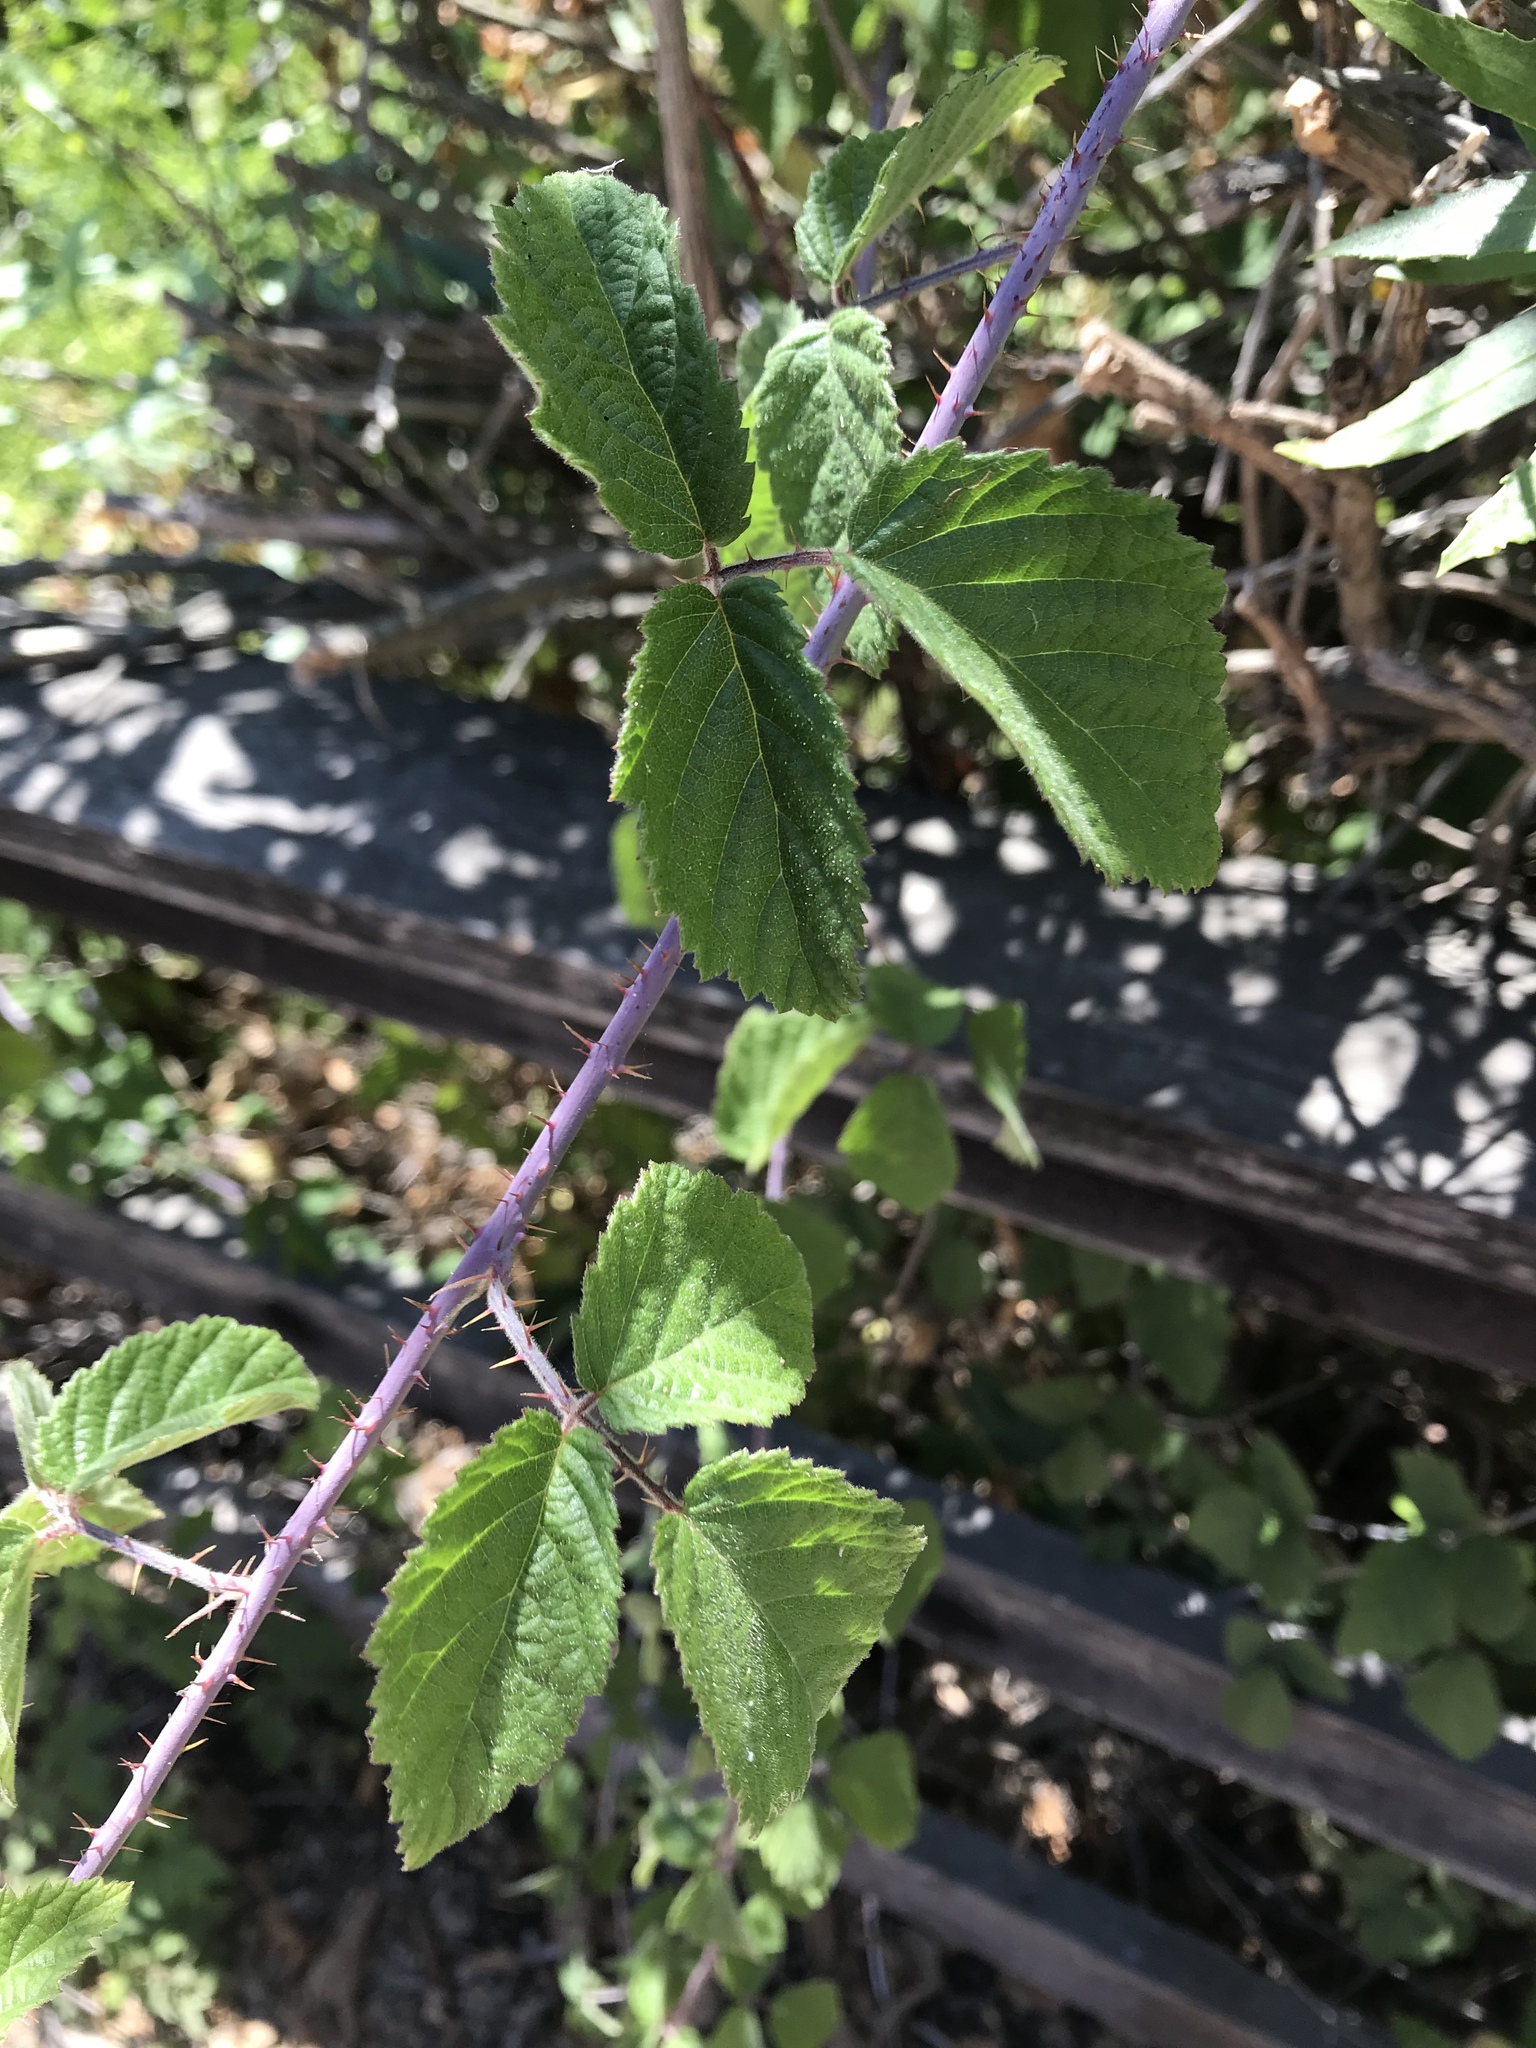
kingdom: Plantae
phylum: Tracheophyta
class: Magnoliopsida
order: Rosales
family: Rosaceae
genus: Rubus
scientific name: Rubus ursinus
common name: Pacific blackberry
